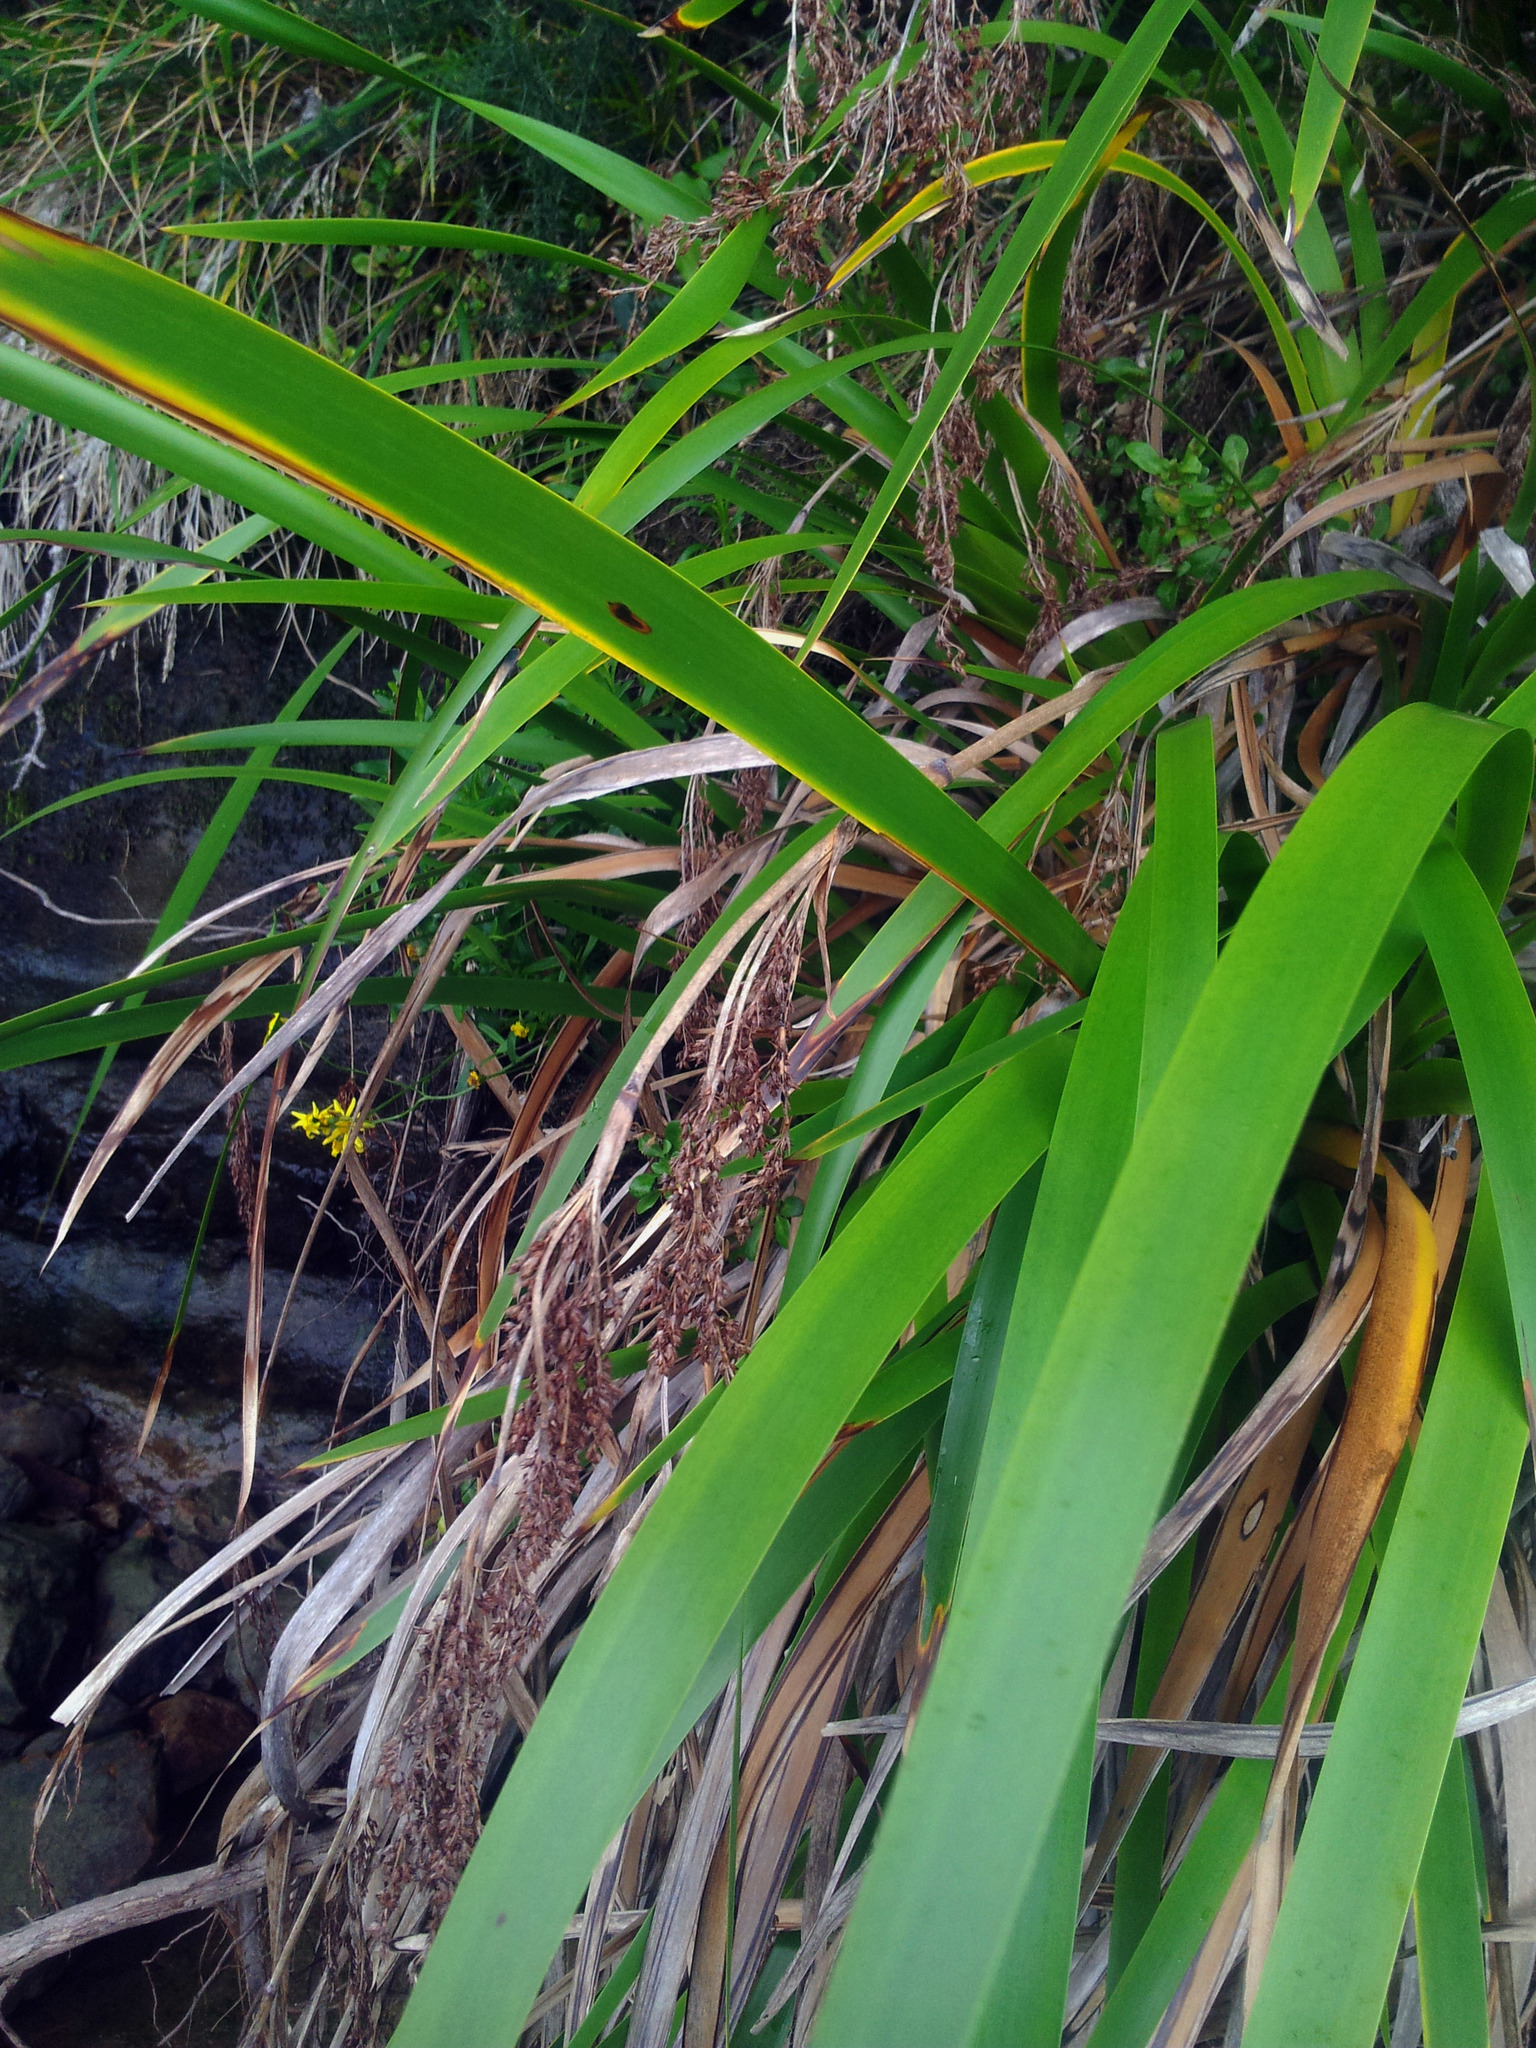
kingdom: Plantae
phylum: Tracheophyta
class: Liliopsida
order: Poales
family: Cyperaceae
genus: Machaerina
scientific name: Machaerina sinclairii
